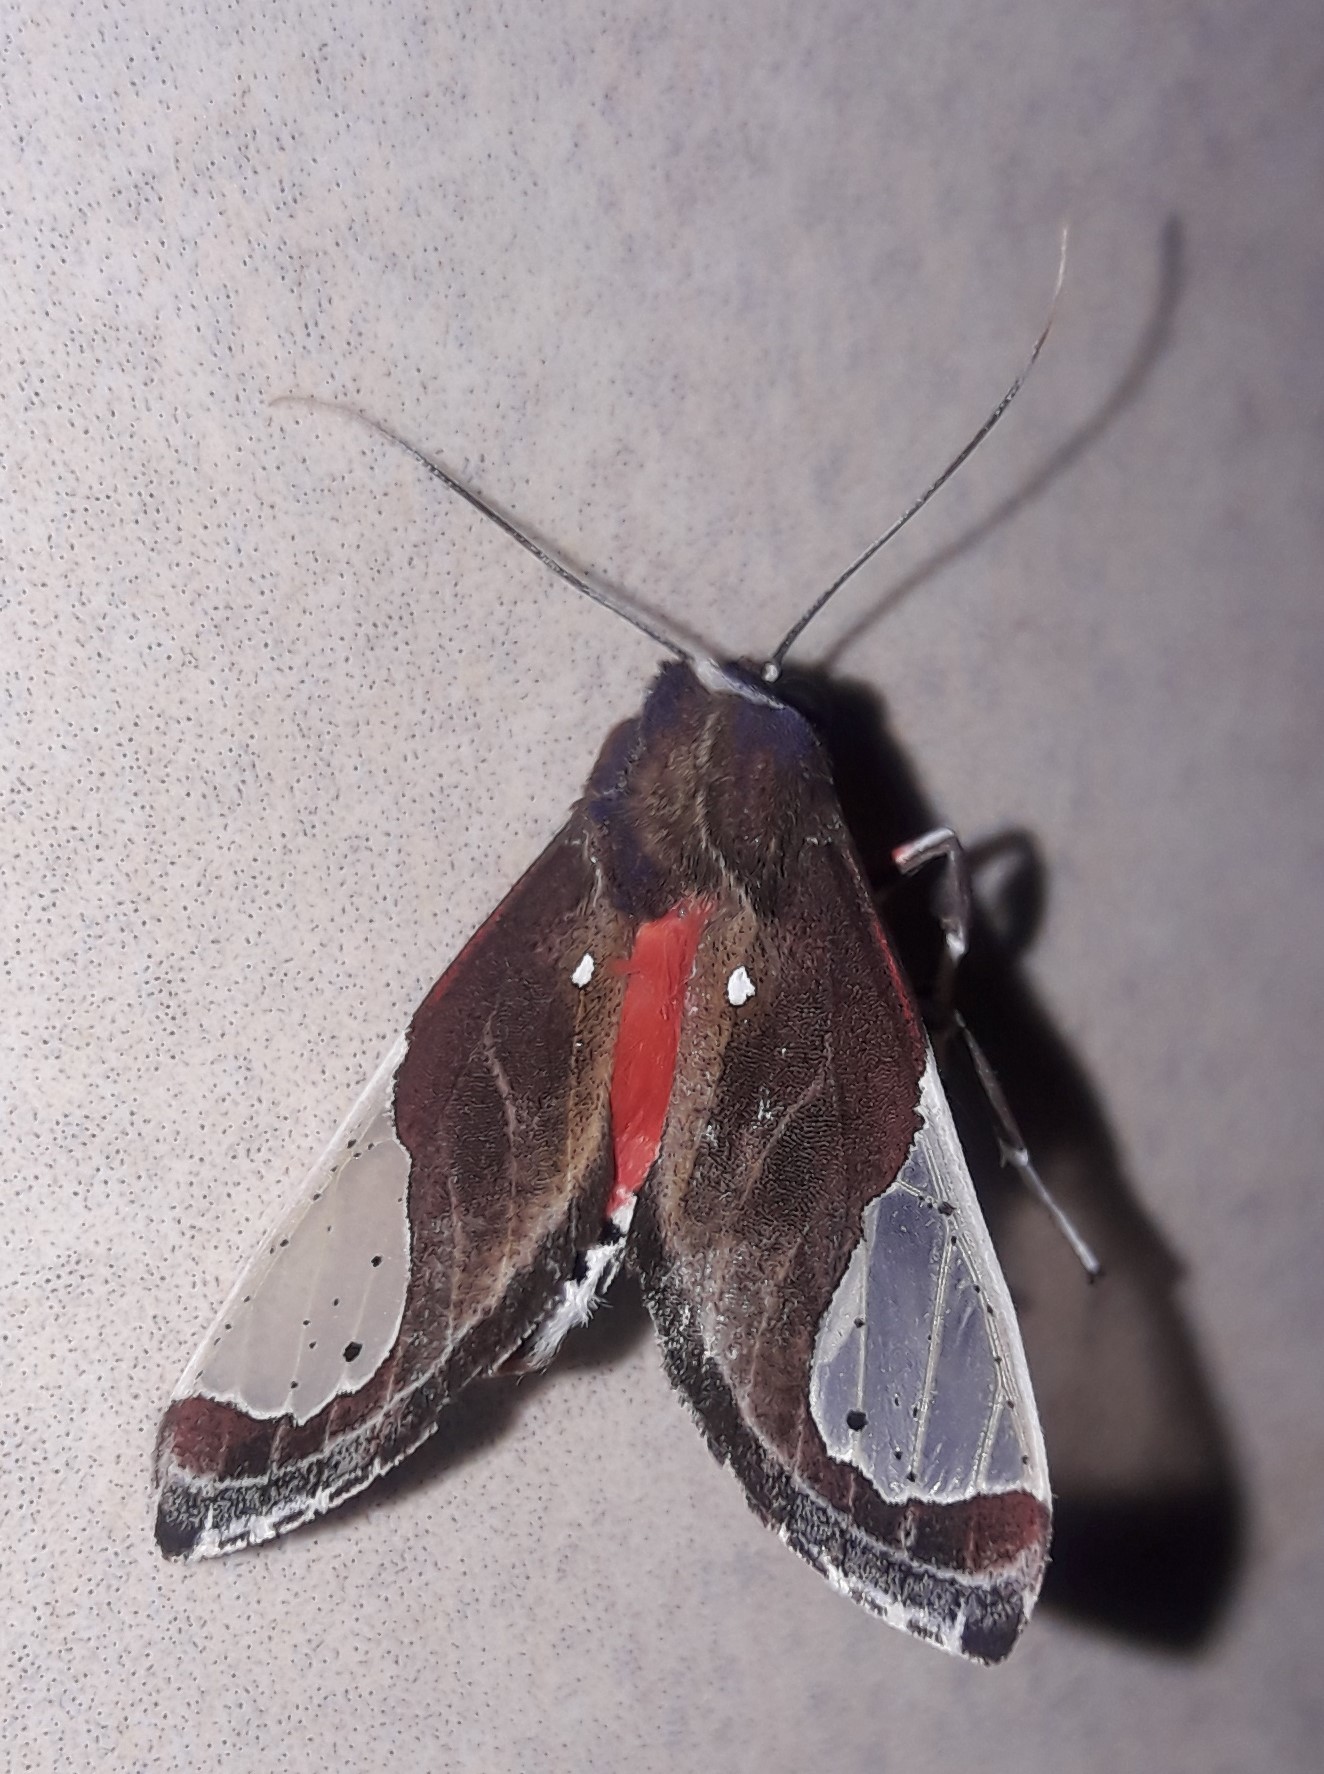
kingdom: Animalia
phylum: Arthropoda
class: Insecta
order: Lepidoptera
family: Erebidae
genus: Bertholdia
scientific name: Bertholdia myosticta
